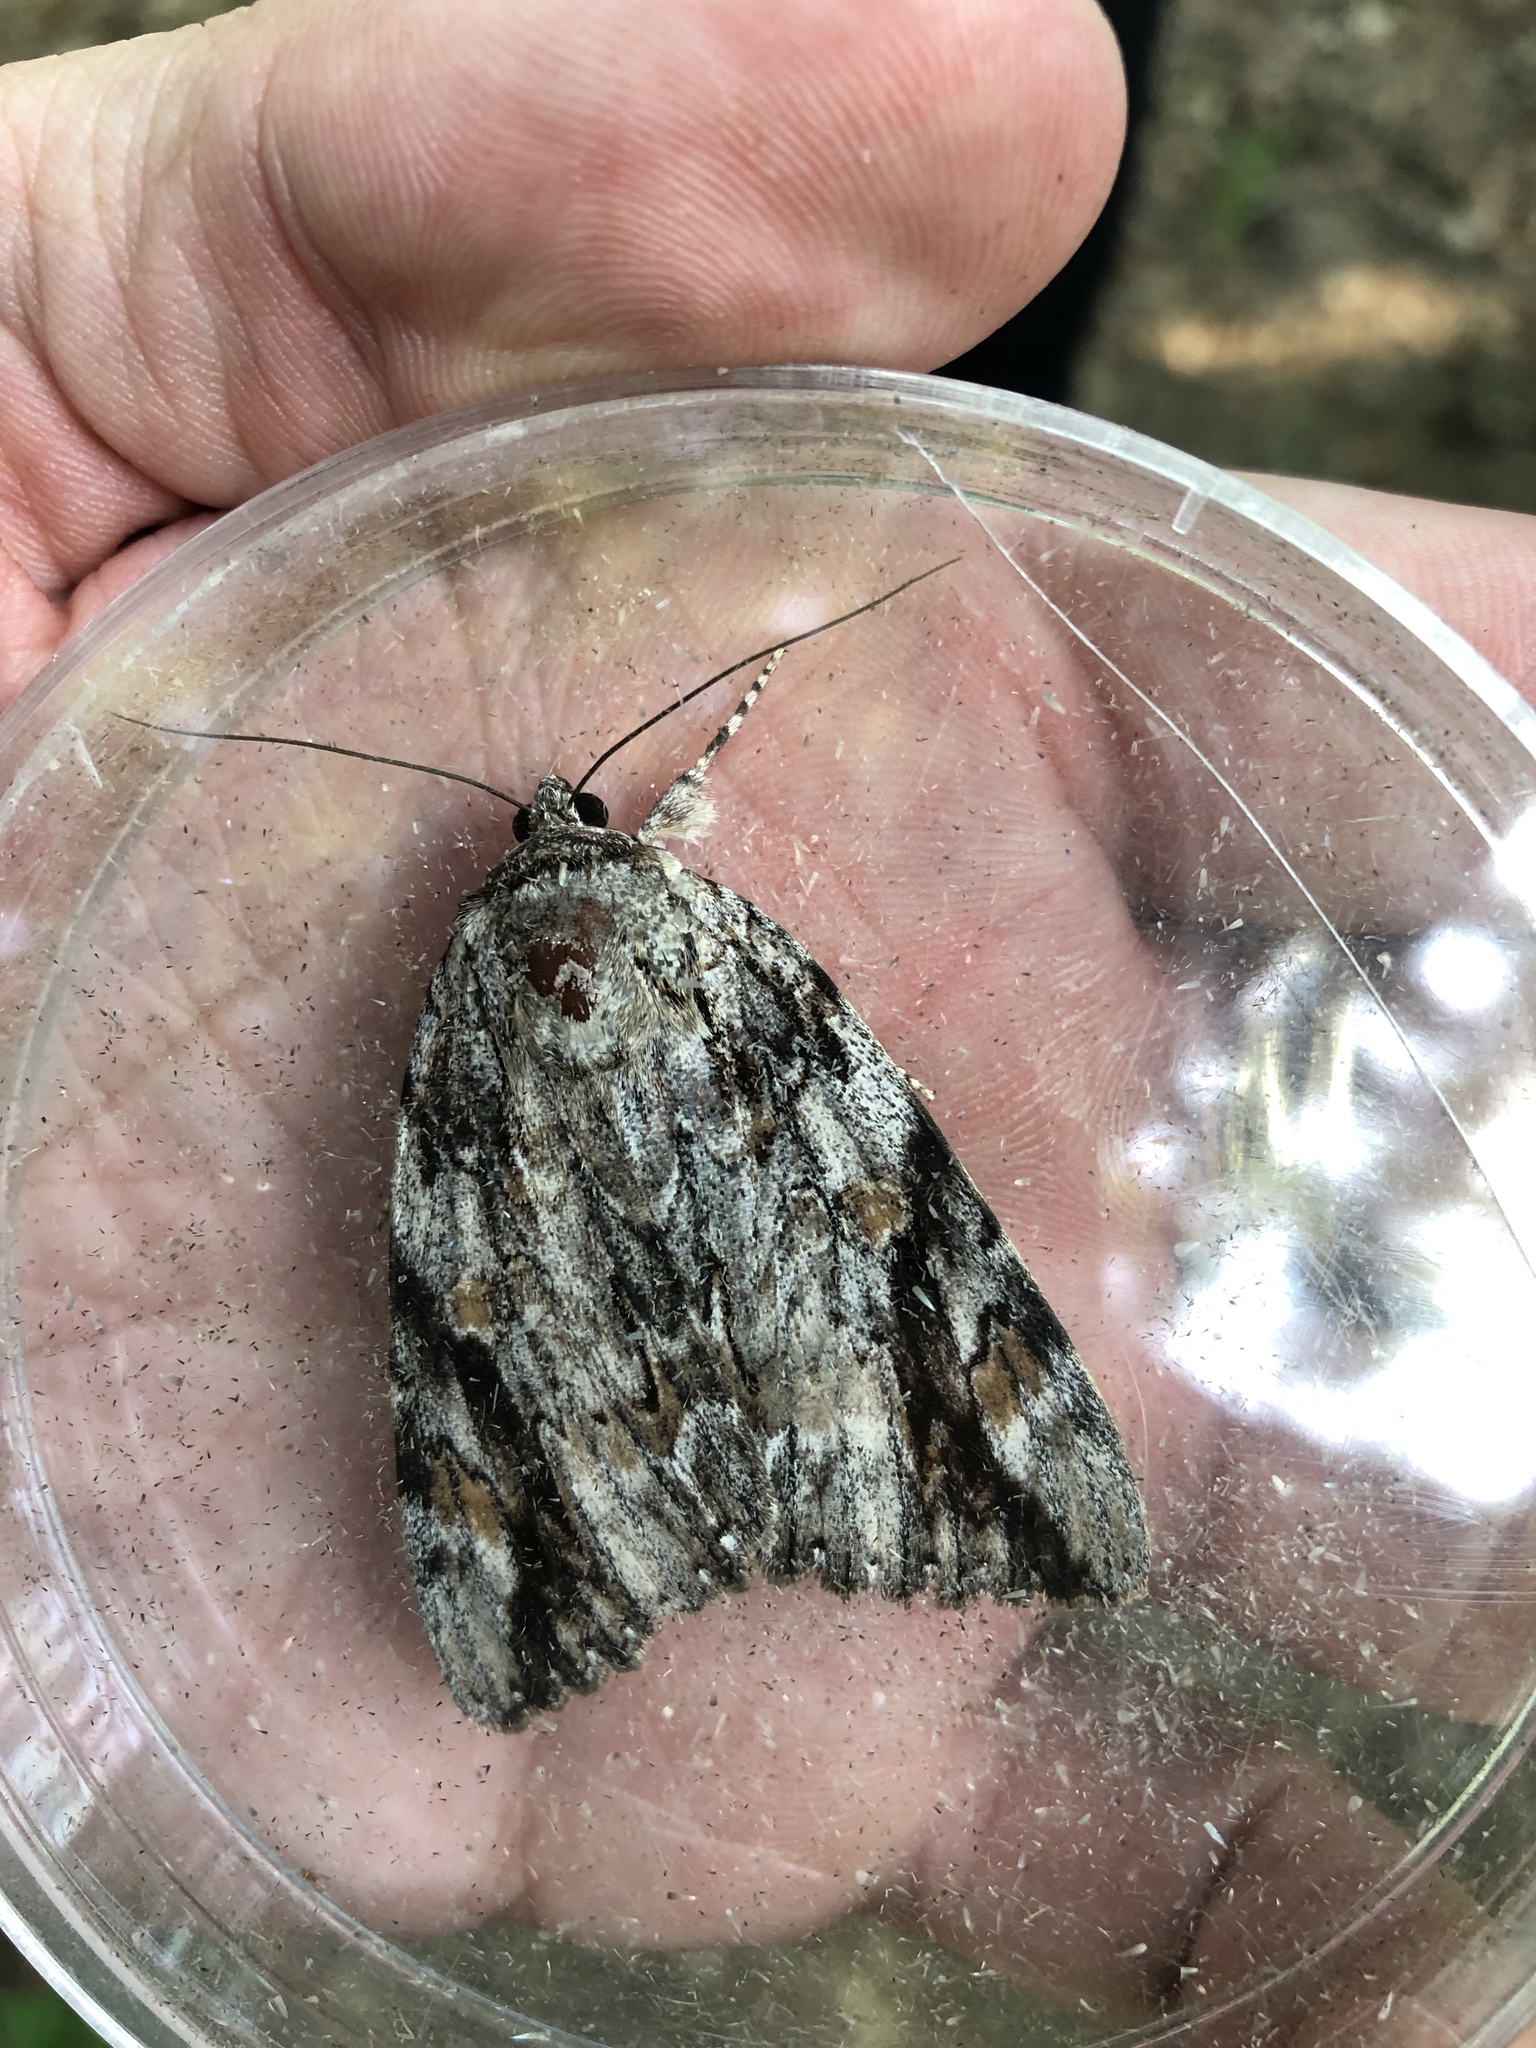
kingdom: Animalia
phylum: Arthropoda
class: Insecta
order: Lepidoptera
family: Erebidae
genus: Catocala
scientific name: Catocala maestosa
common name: Sad underwing
